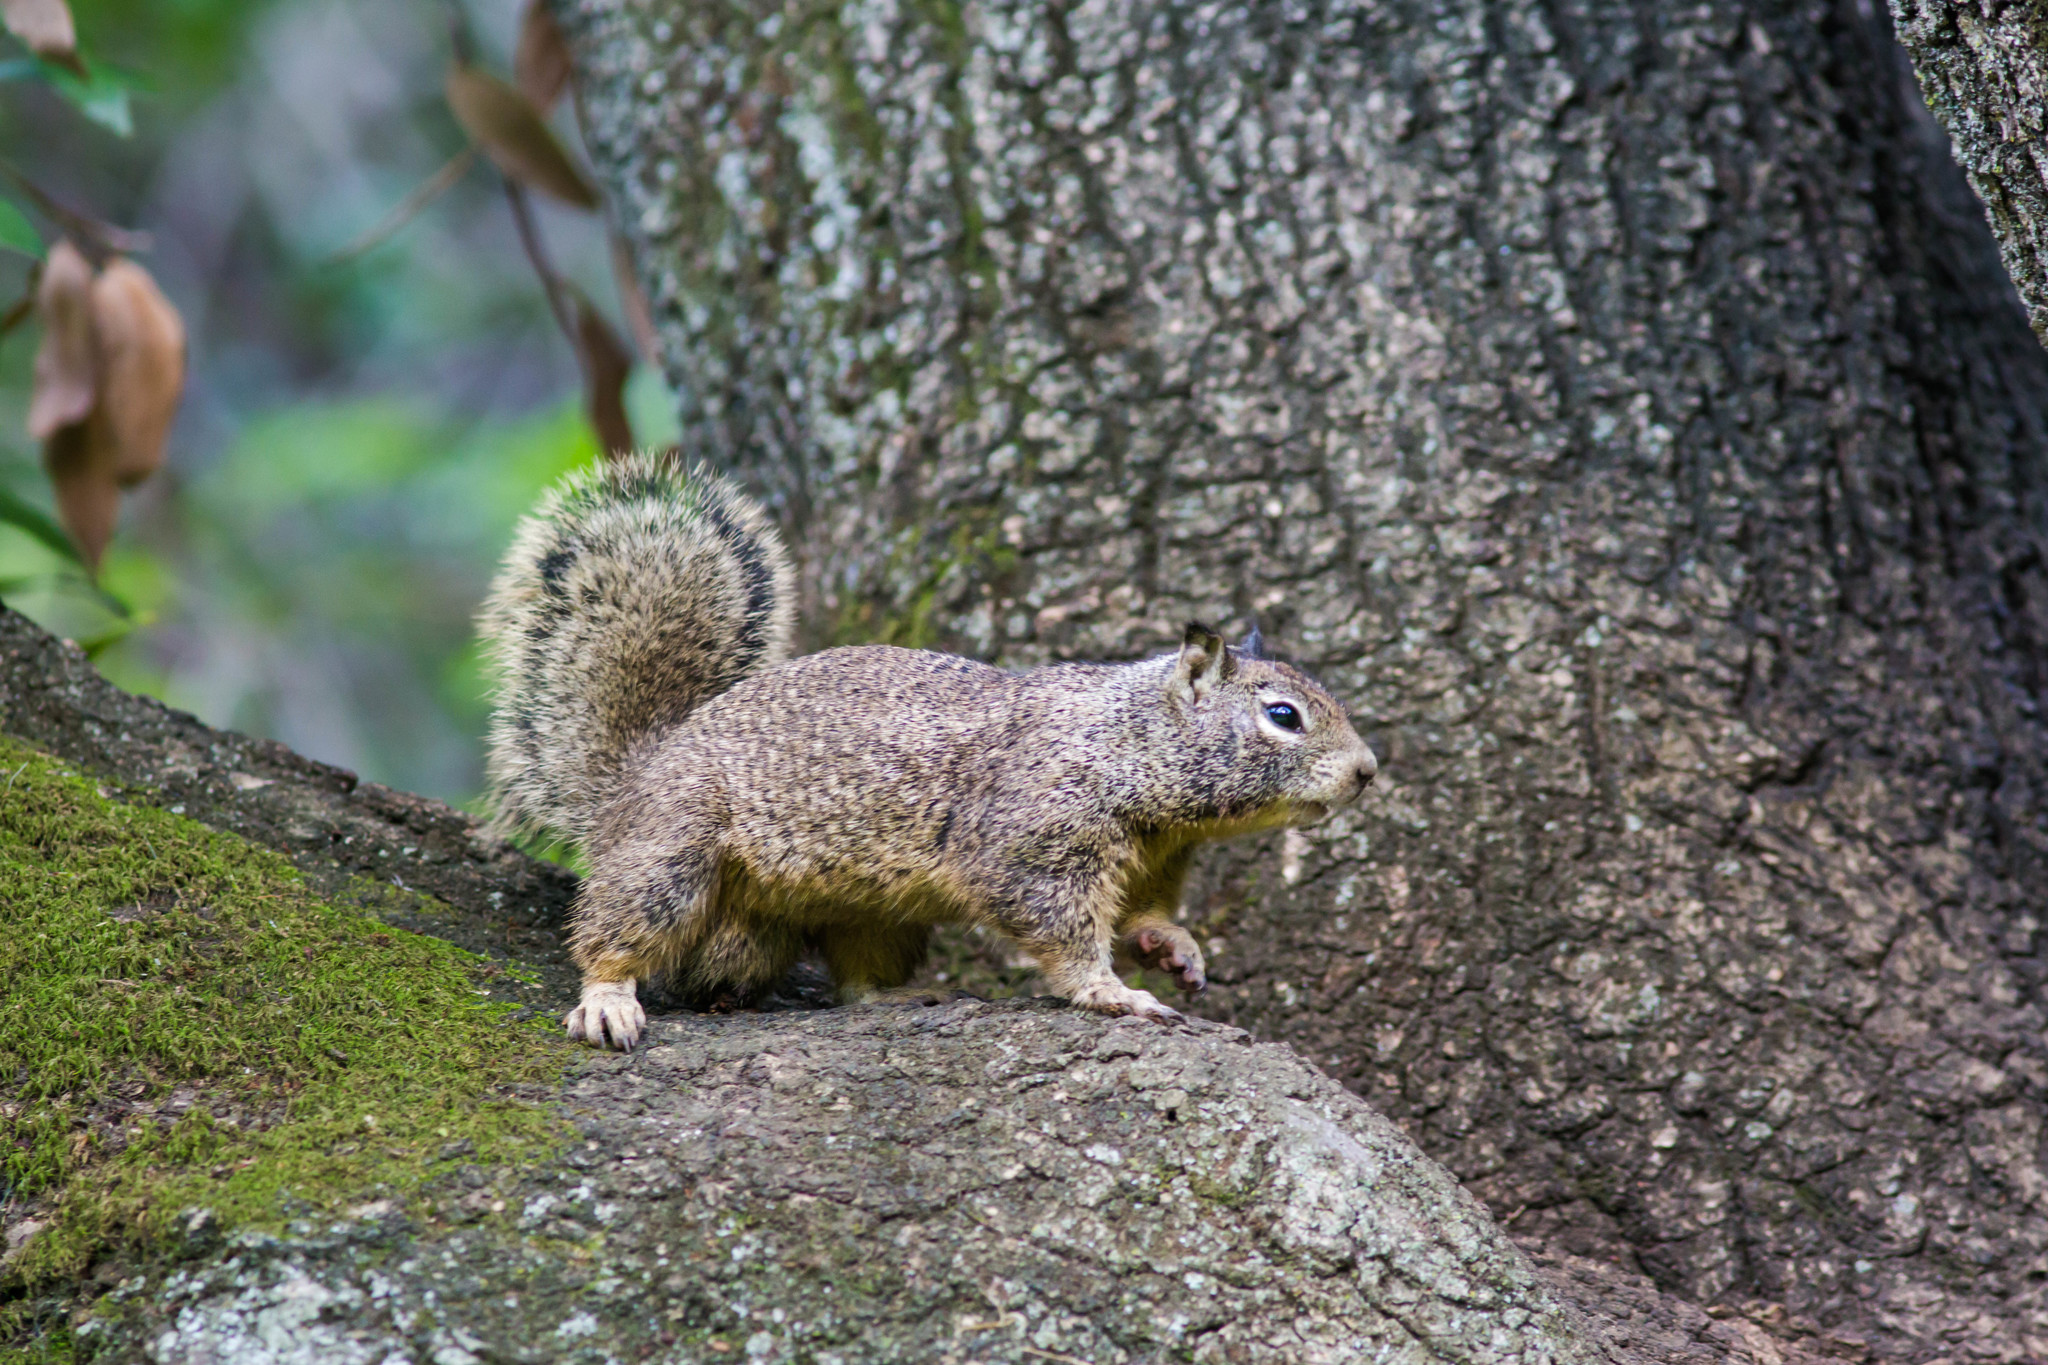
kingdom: Animalia
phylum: Chordata
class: Mammalia
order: Rodentia
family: Sciuridae
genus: Otospermophilus
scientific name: Otospermophilus beecheyi
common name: California ground squirrel
